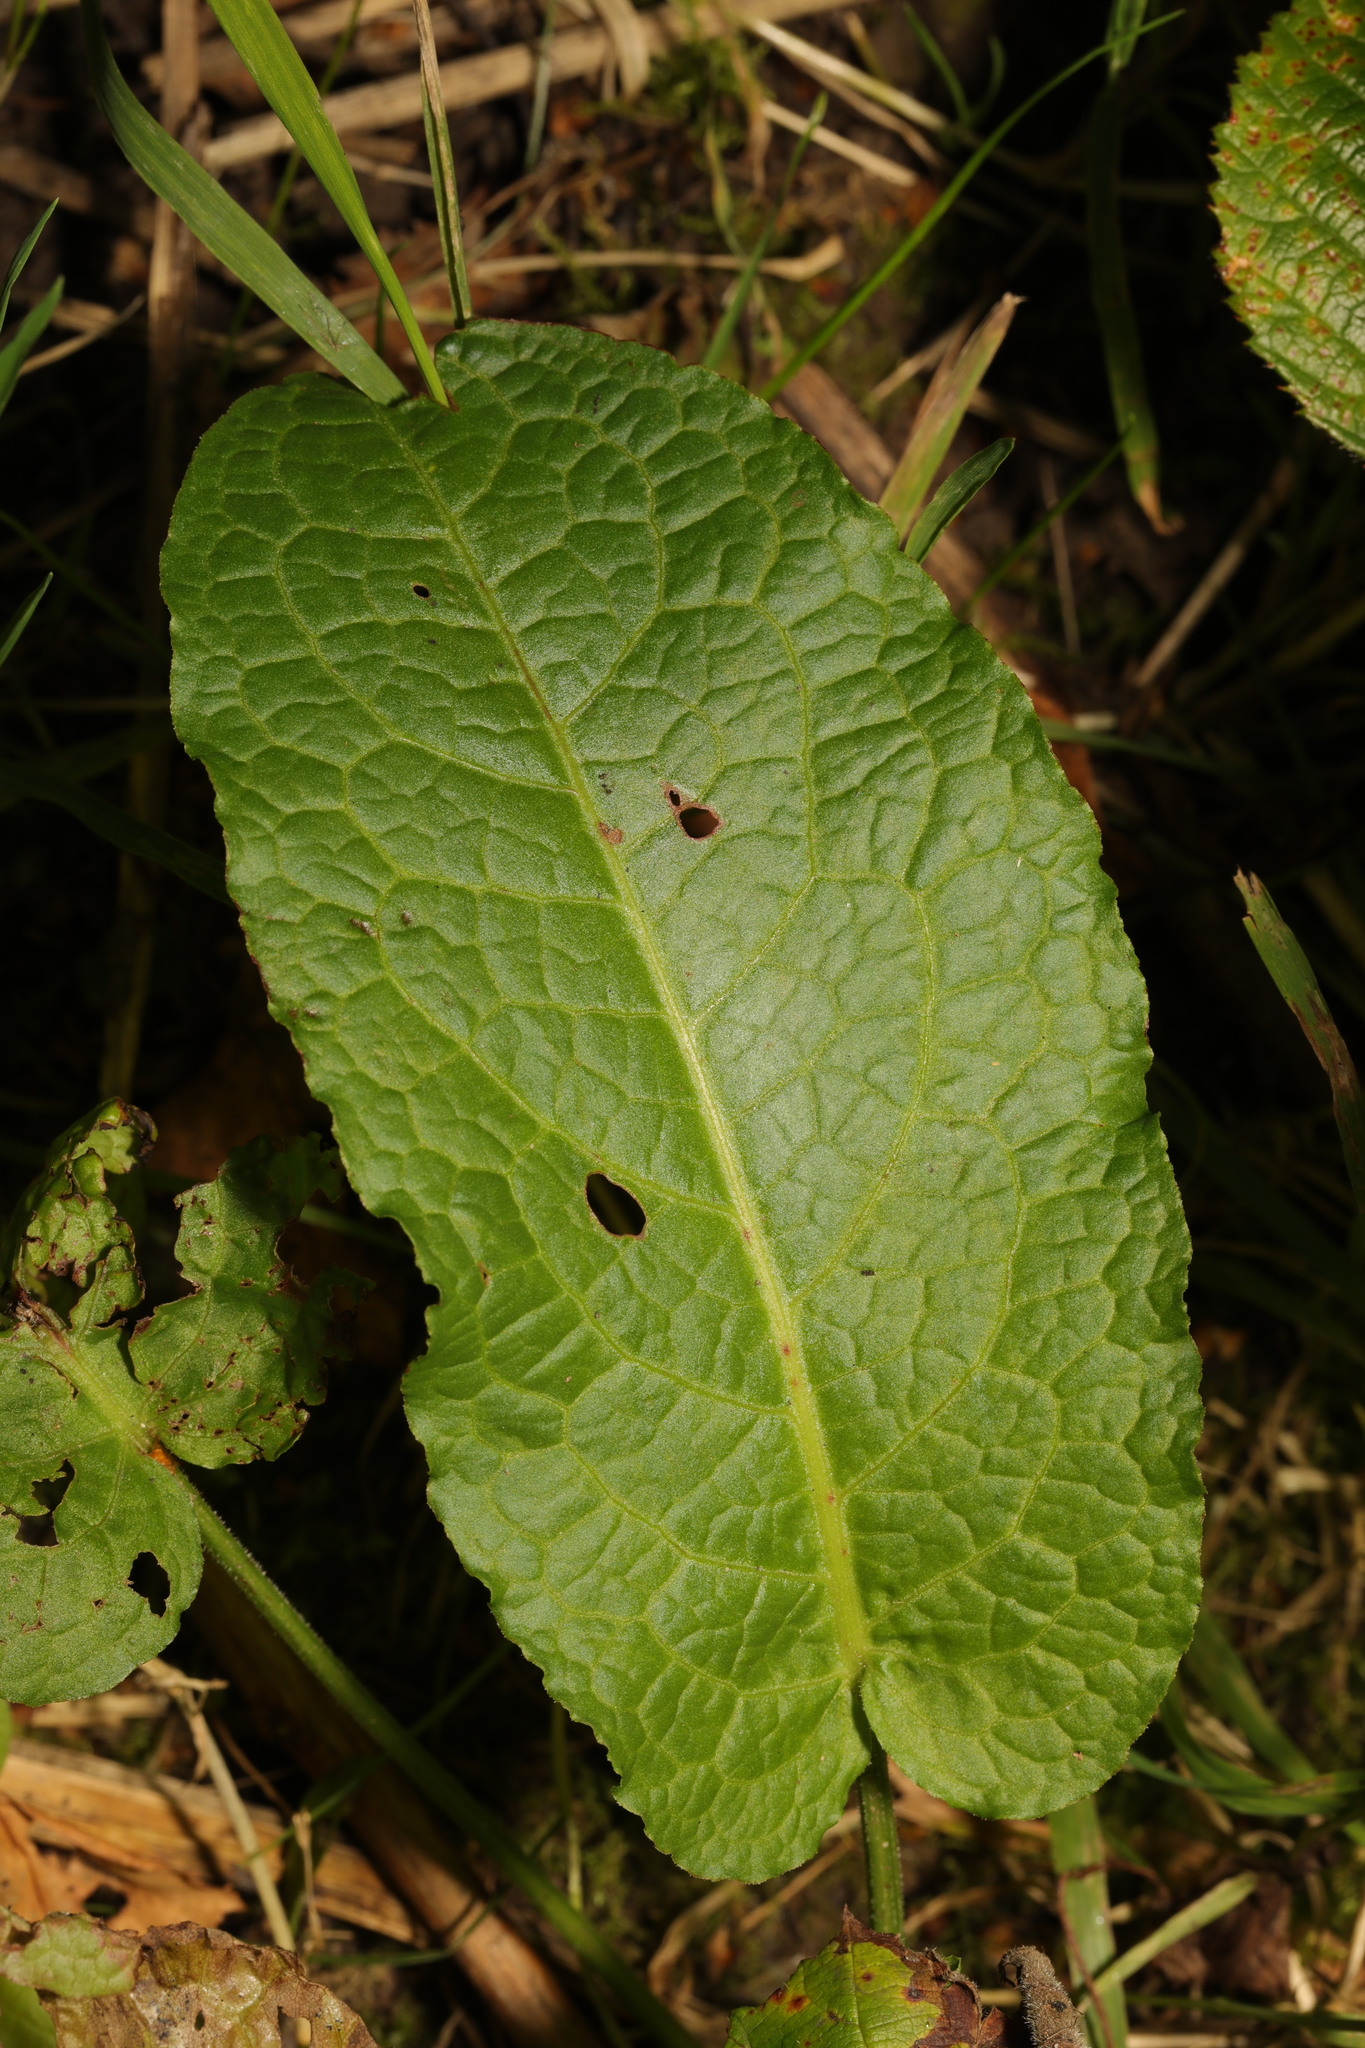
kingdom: Plantae
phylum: Tracheophyta
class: Magnoliopsida
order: Caryophyllales
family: Polygonaceae
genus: Rumex
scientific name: Rumex obtusifolius
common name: Bitter dock
